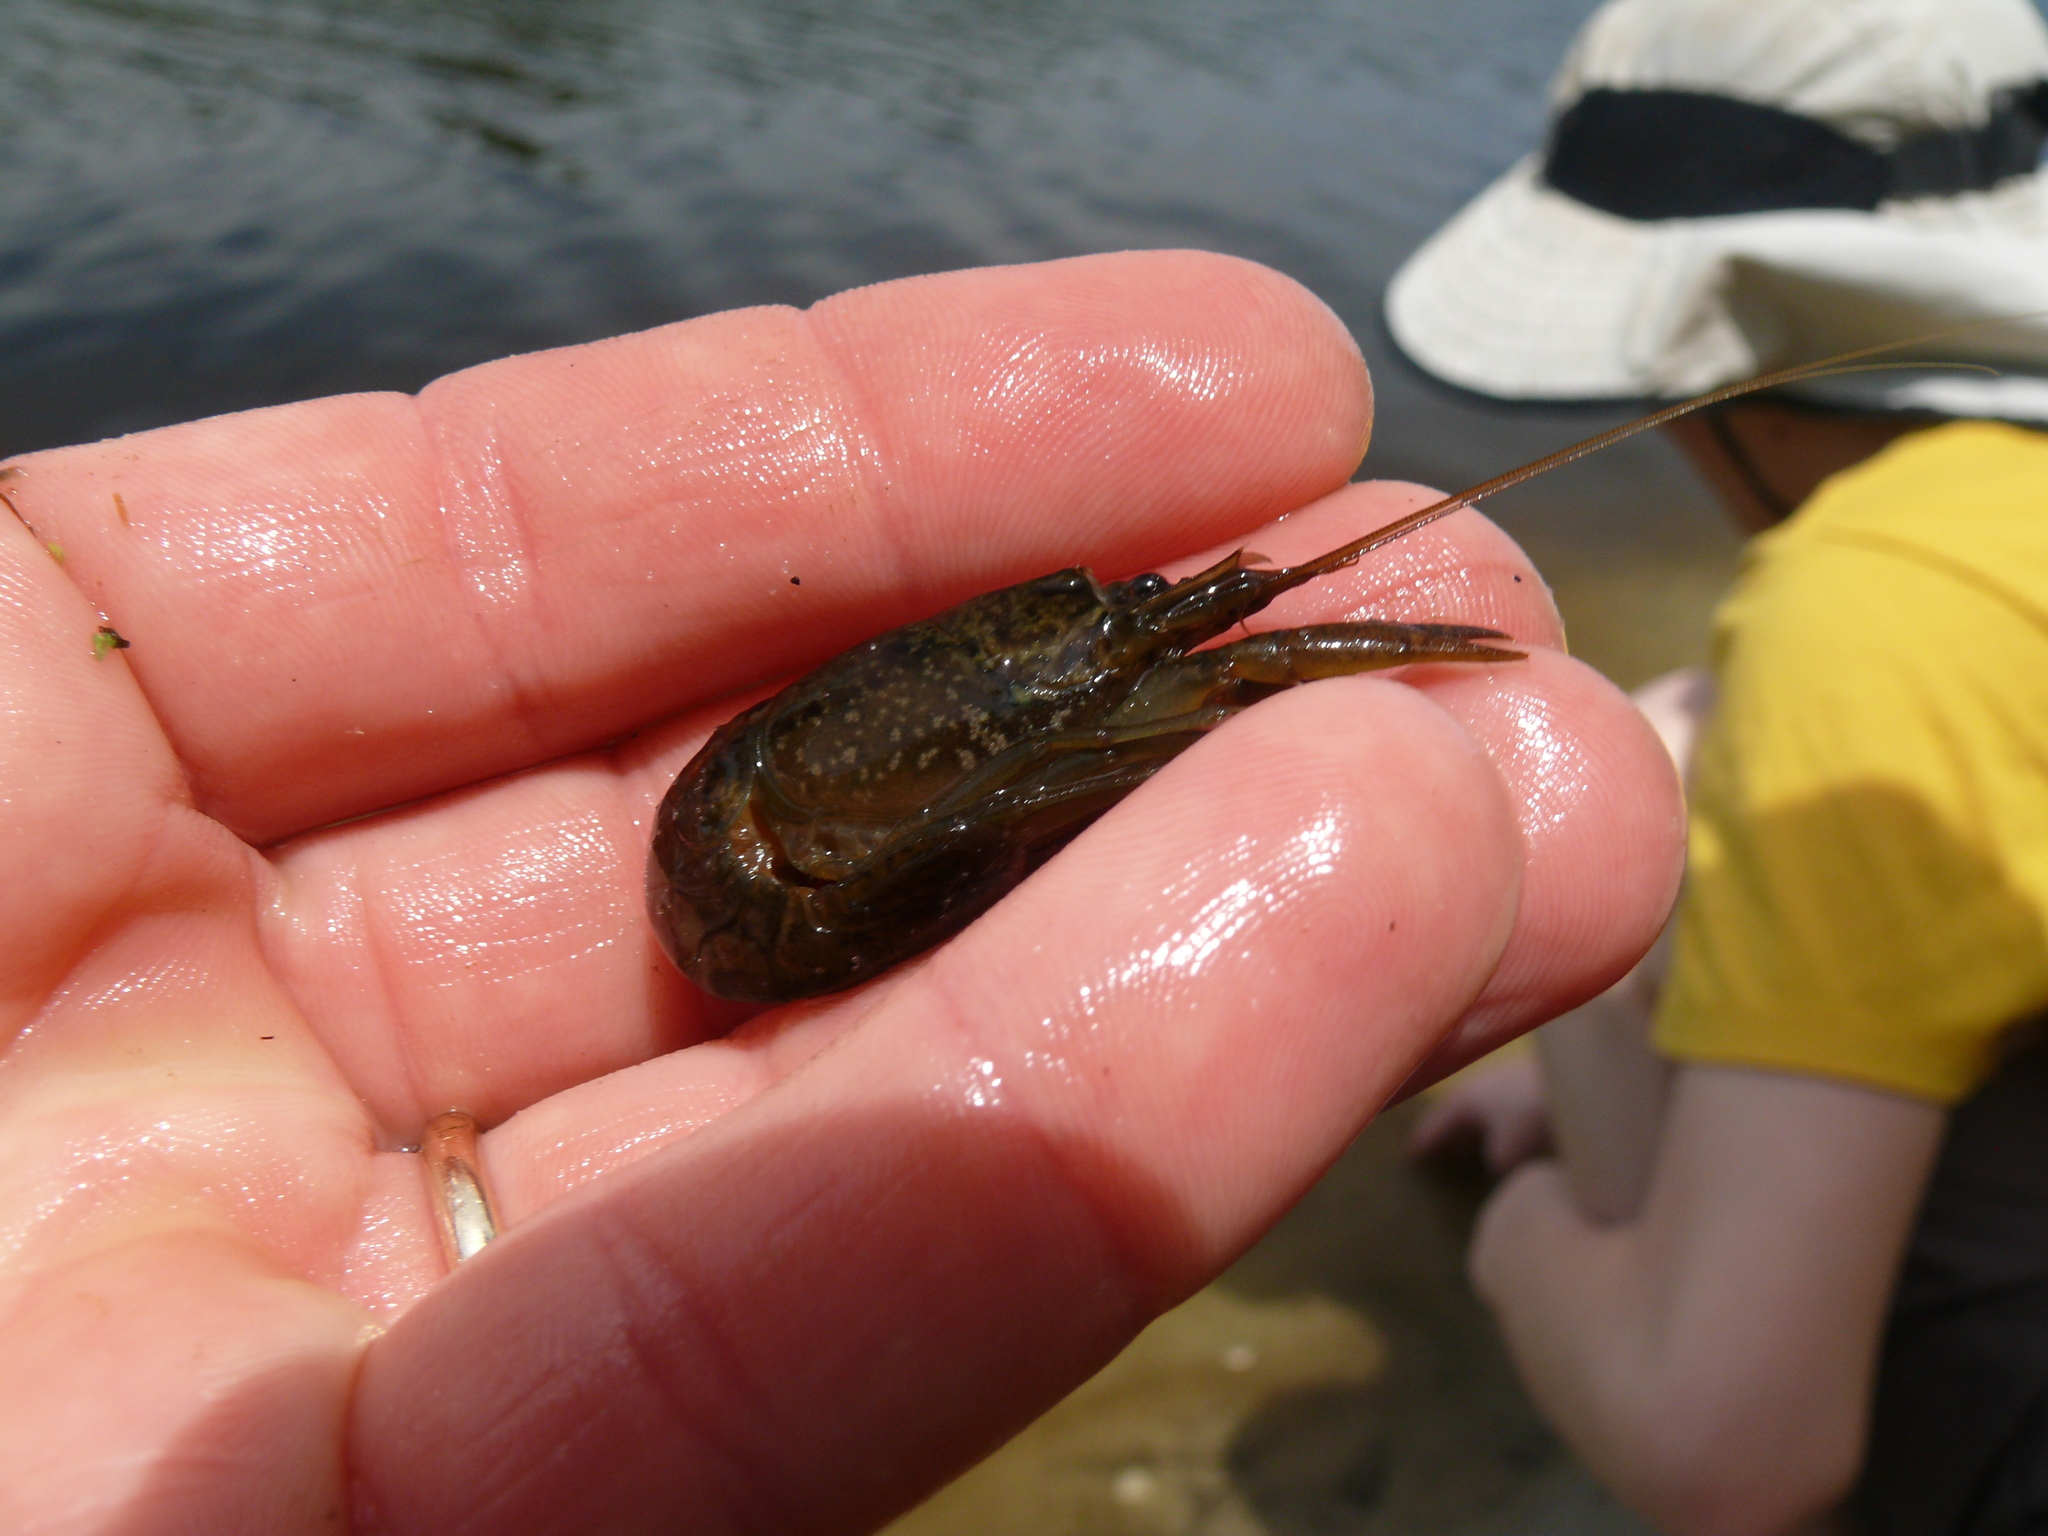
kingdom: Animalia
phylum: Arthropoda
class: Malacostraca
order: Decapoda
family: Cambaridae
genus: Procambarus
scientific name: Procambarus seminolae
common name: Seminole crayfish
